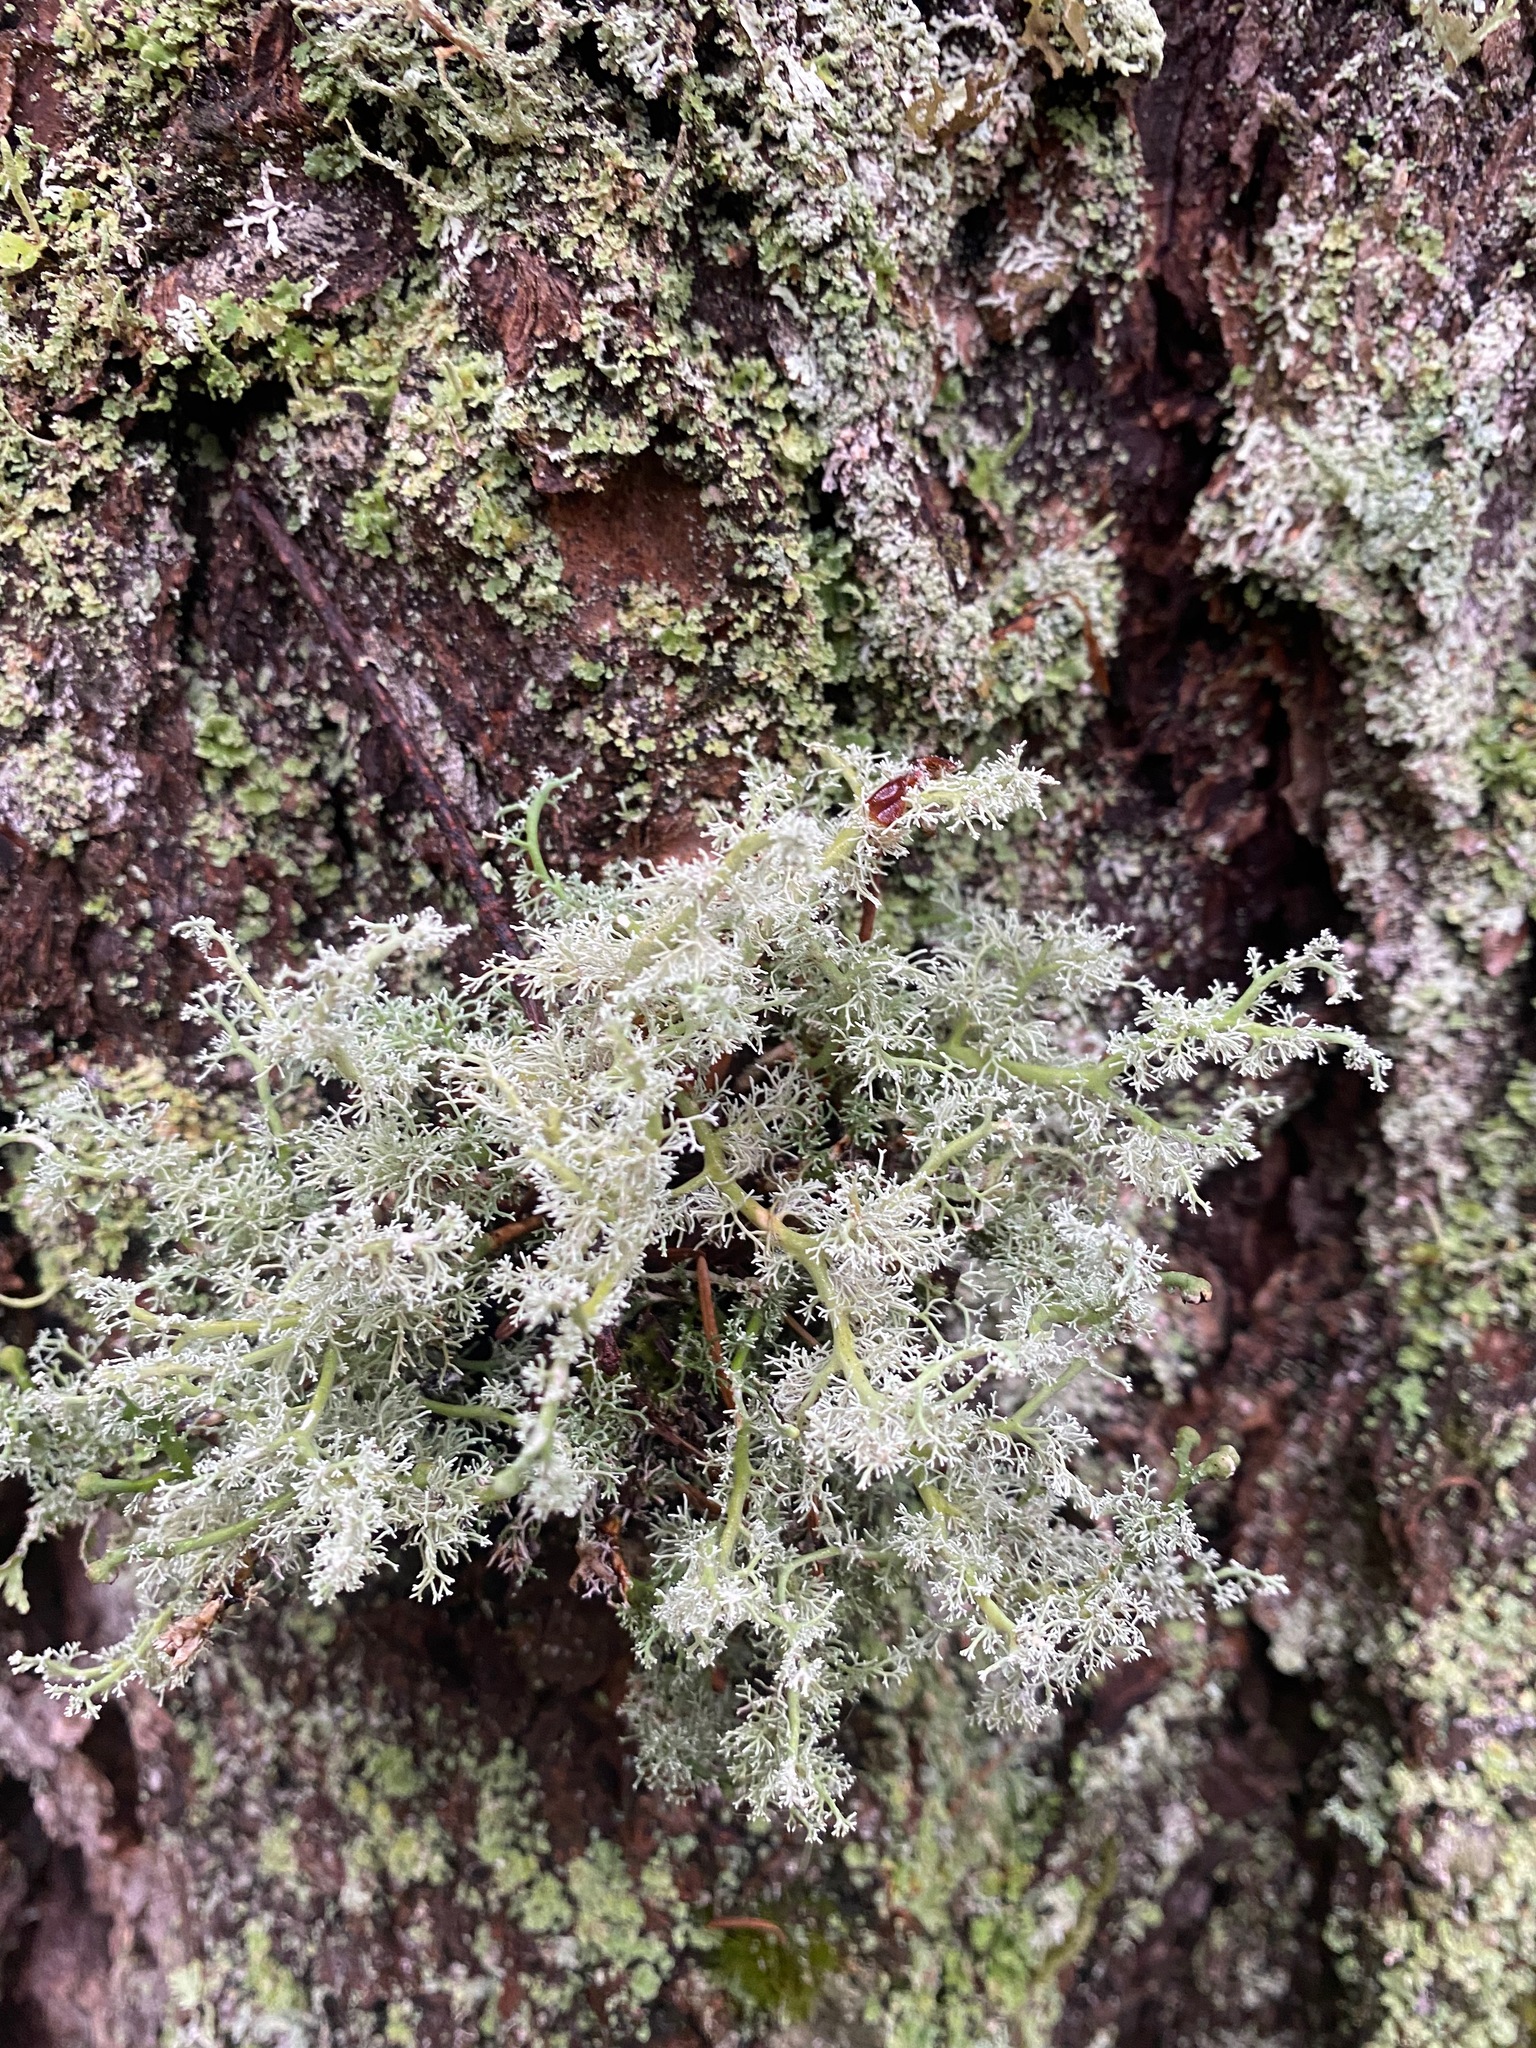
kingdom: Fungi
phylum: Ascomycota
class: Lecanoromycetes
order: Lecanorales
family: Sphaerophoraceae
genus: Sphaerophorus
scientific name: Sphaerophorus globosus
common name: Globe ball lichen
